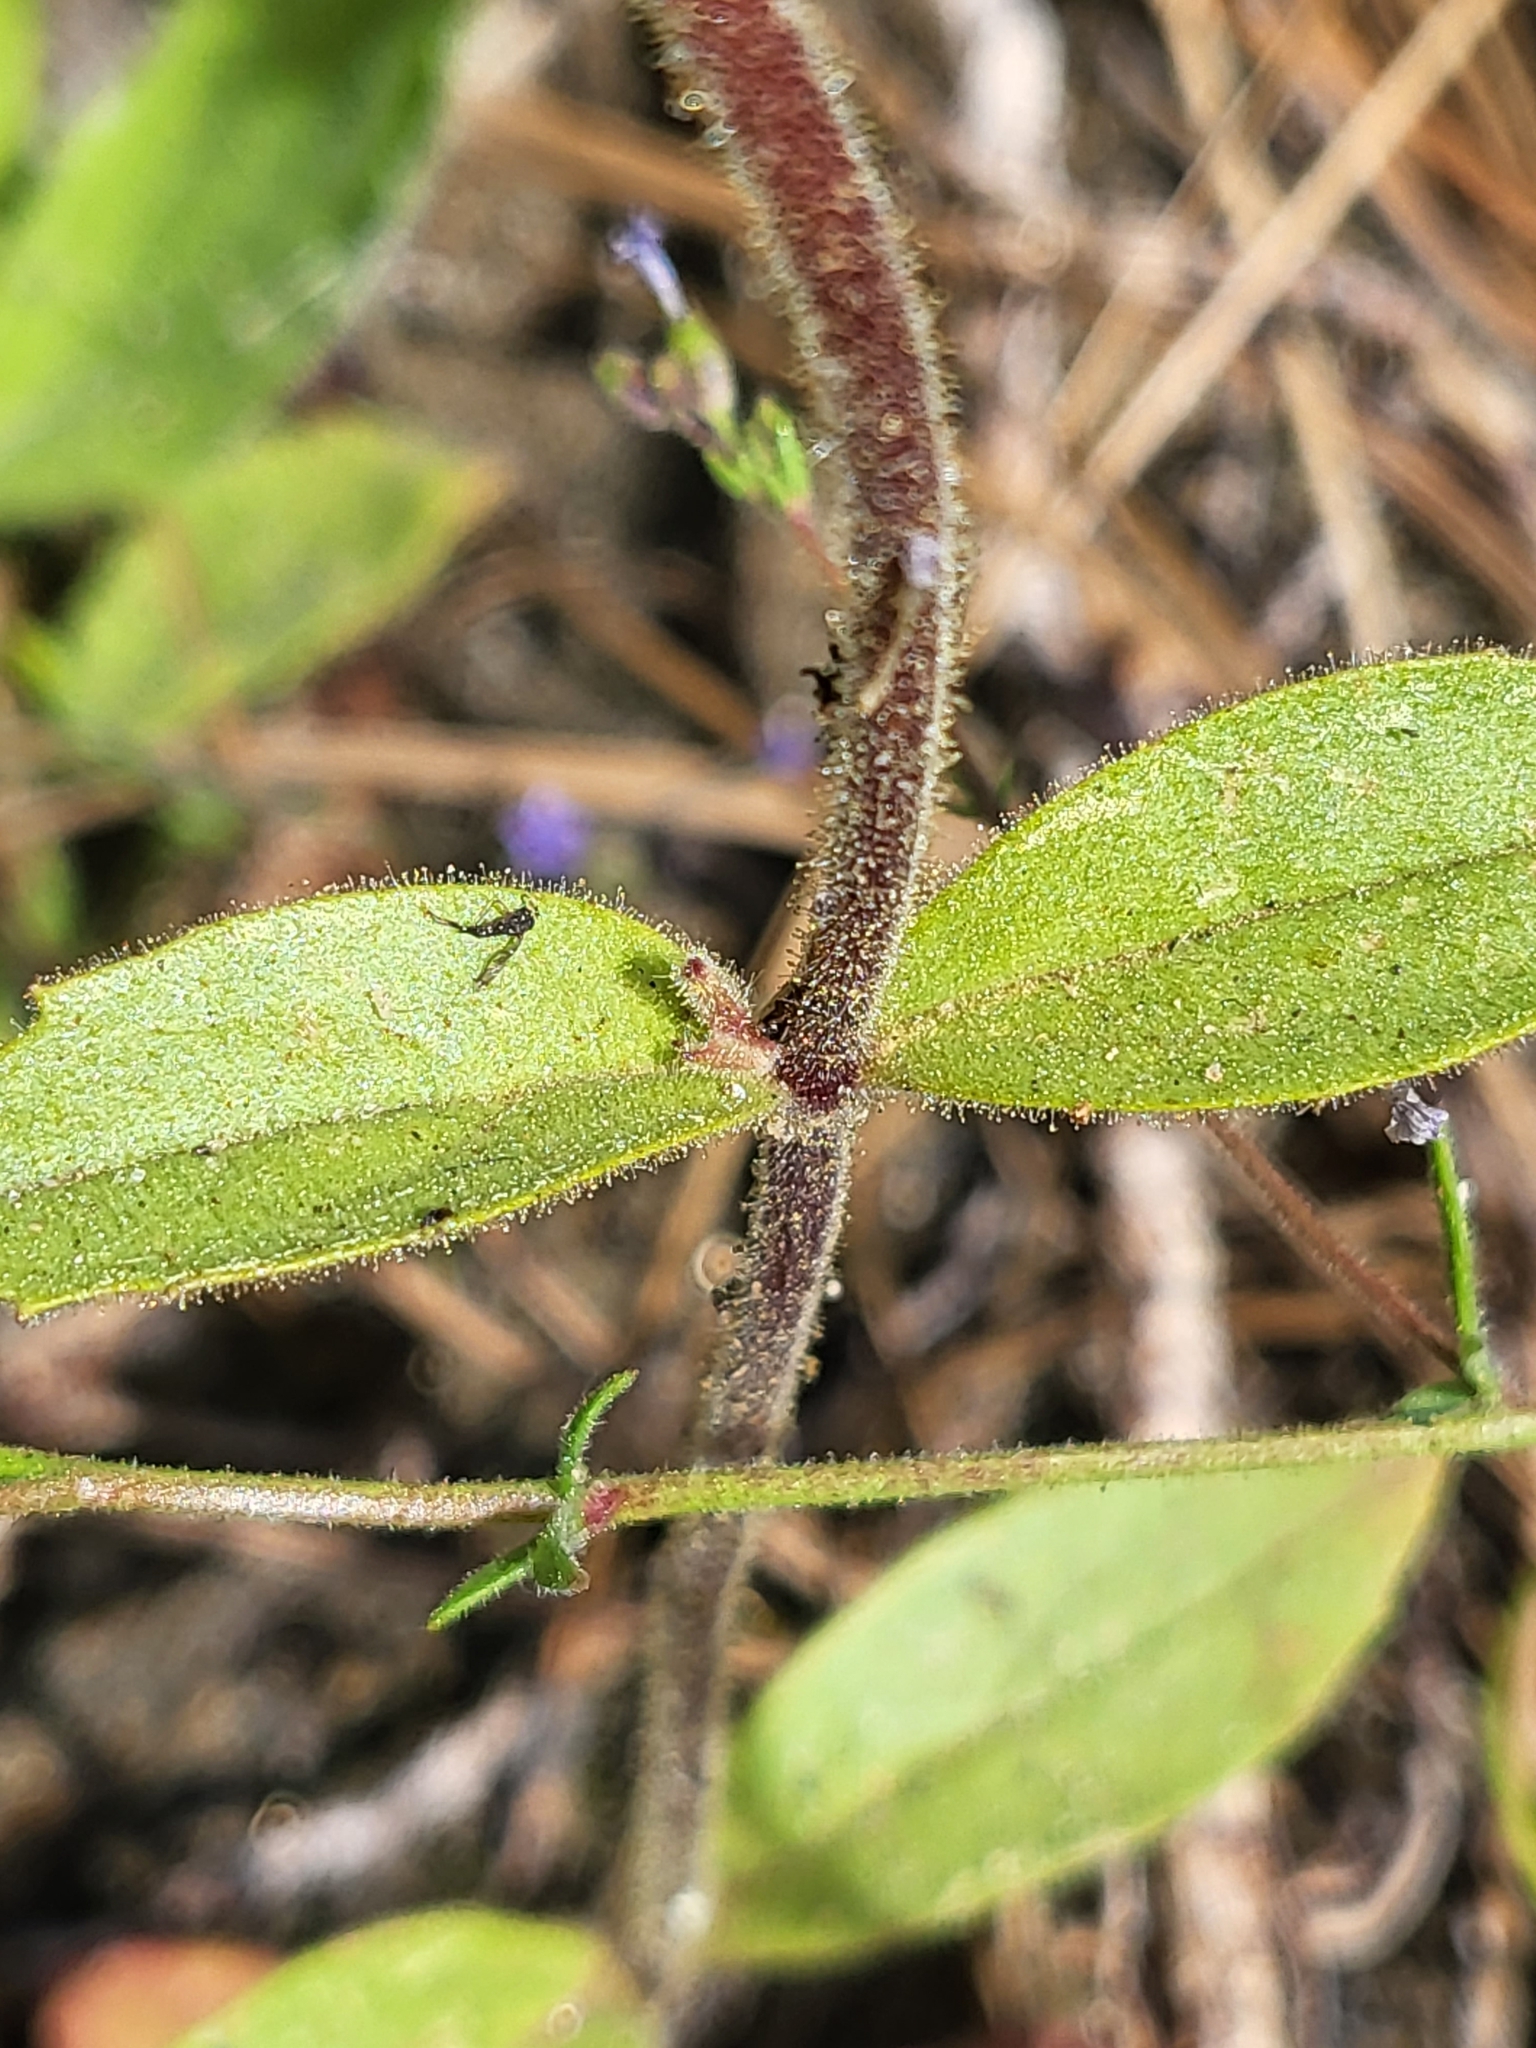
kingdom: Plantae
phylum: Tracheophyta
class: Magnoliopsida
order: Lamiales
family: Phrymaceae
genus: Diplacus
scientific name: Diplacus bolanderi
